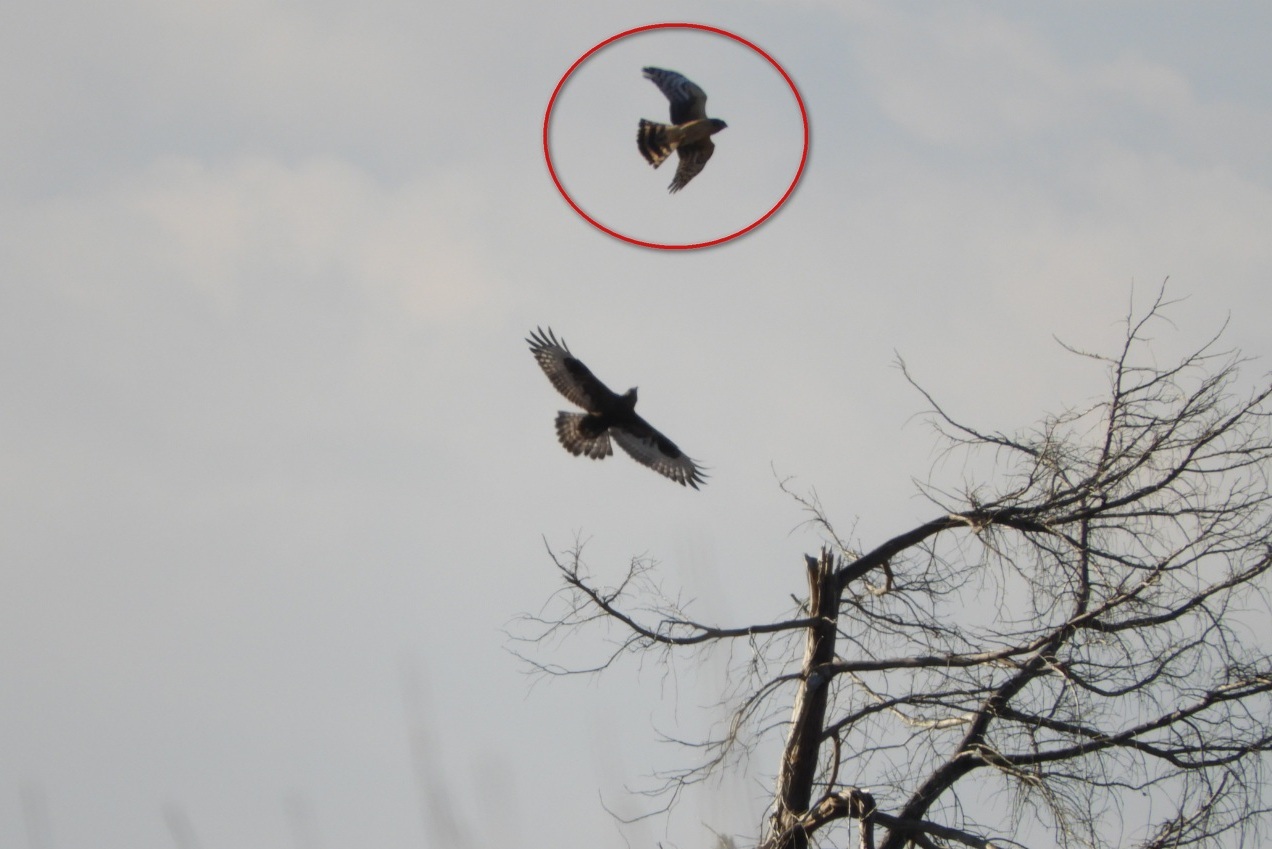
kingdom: Animalia
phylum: Chordata
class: Aves
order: Accipitriformes
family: Accipitridae
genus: Circus
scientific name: Circus cyaneus
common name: Hen harrier
